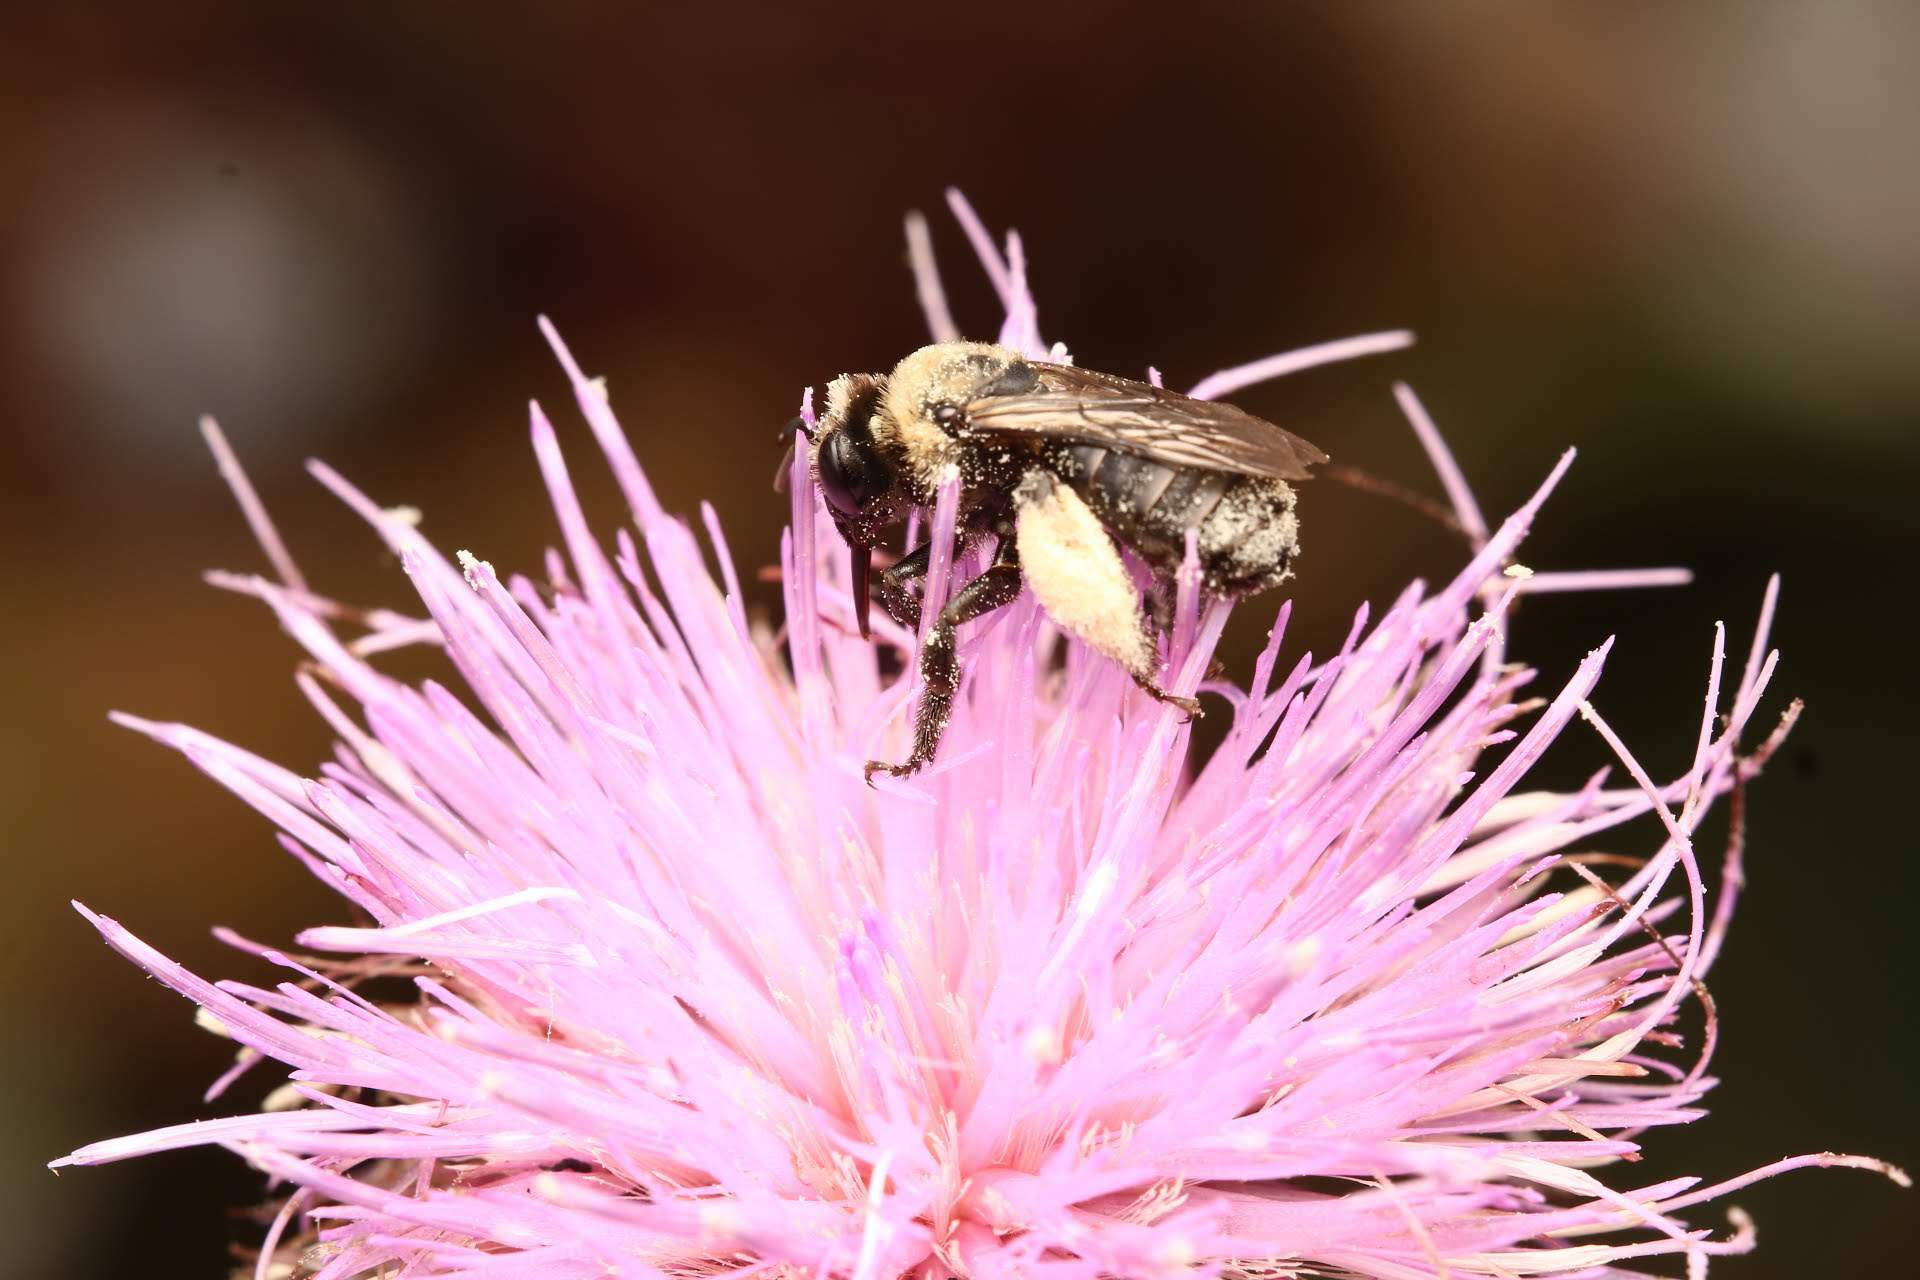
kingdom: Animalia
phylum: Arthropoda
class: Insecta
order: Hymenoptera
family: Apidae
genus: Melissodes
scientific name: Melissodes desponsus
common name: Thistle long-horned bee
